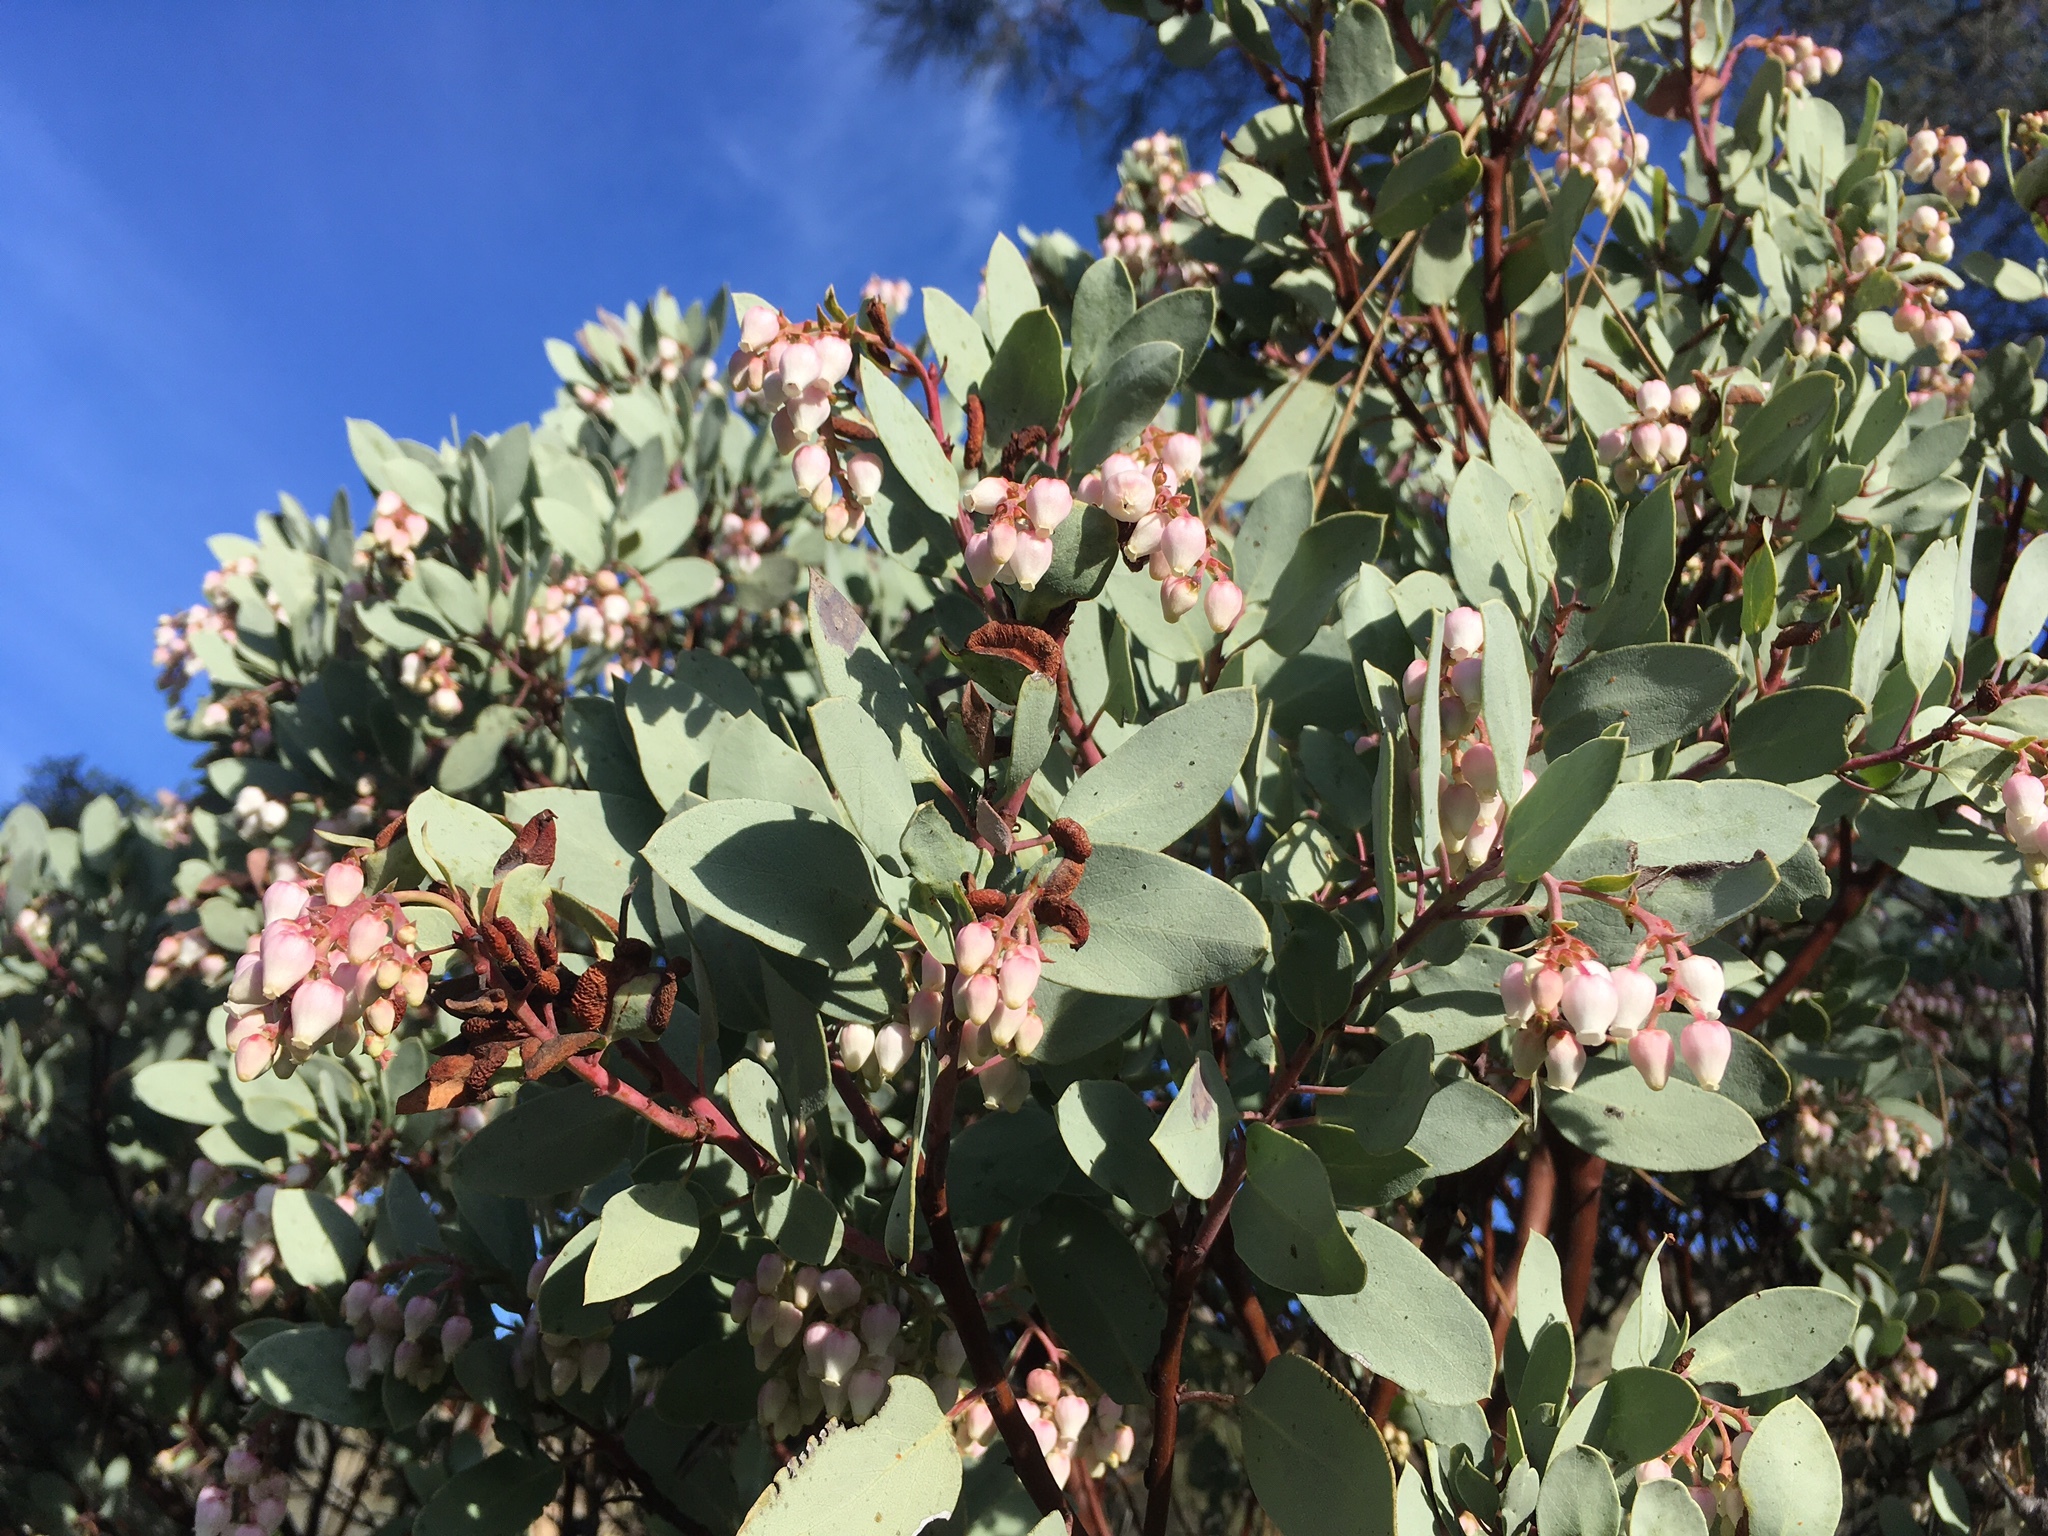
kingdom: Plantae
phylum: Tracheophyta
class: Magnoliopsida
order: Ericales
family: Ericaceae
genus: Arctostaphylos
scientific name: Arctostaphylos glauca
